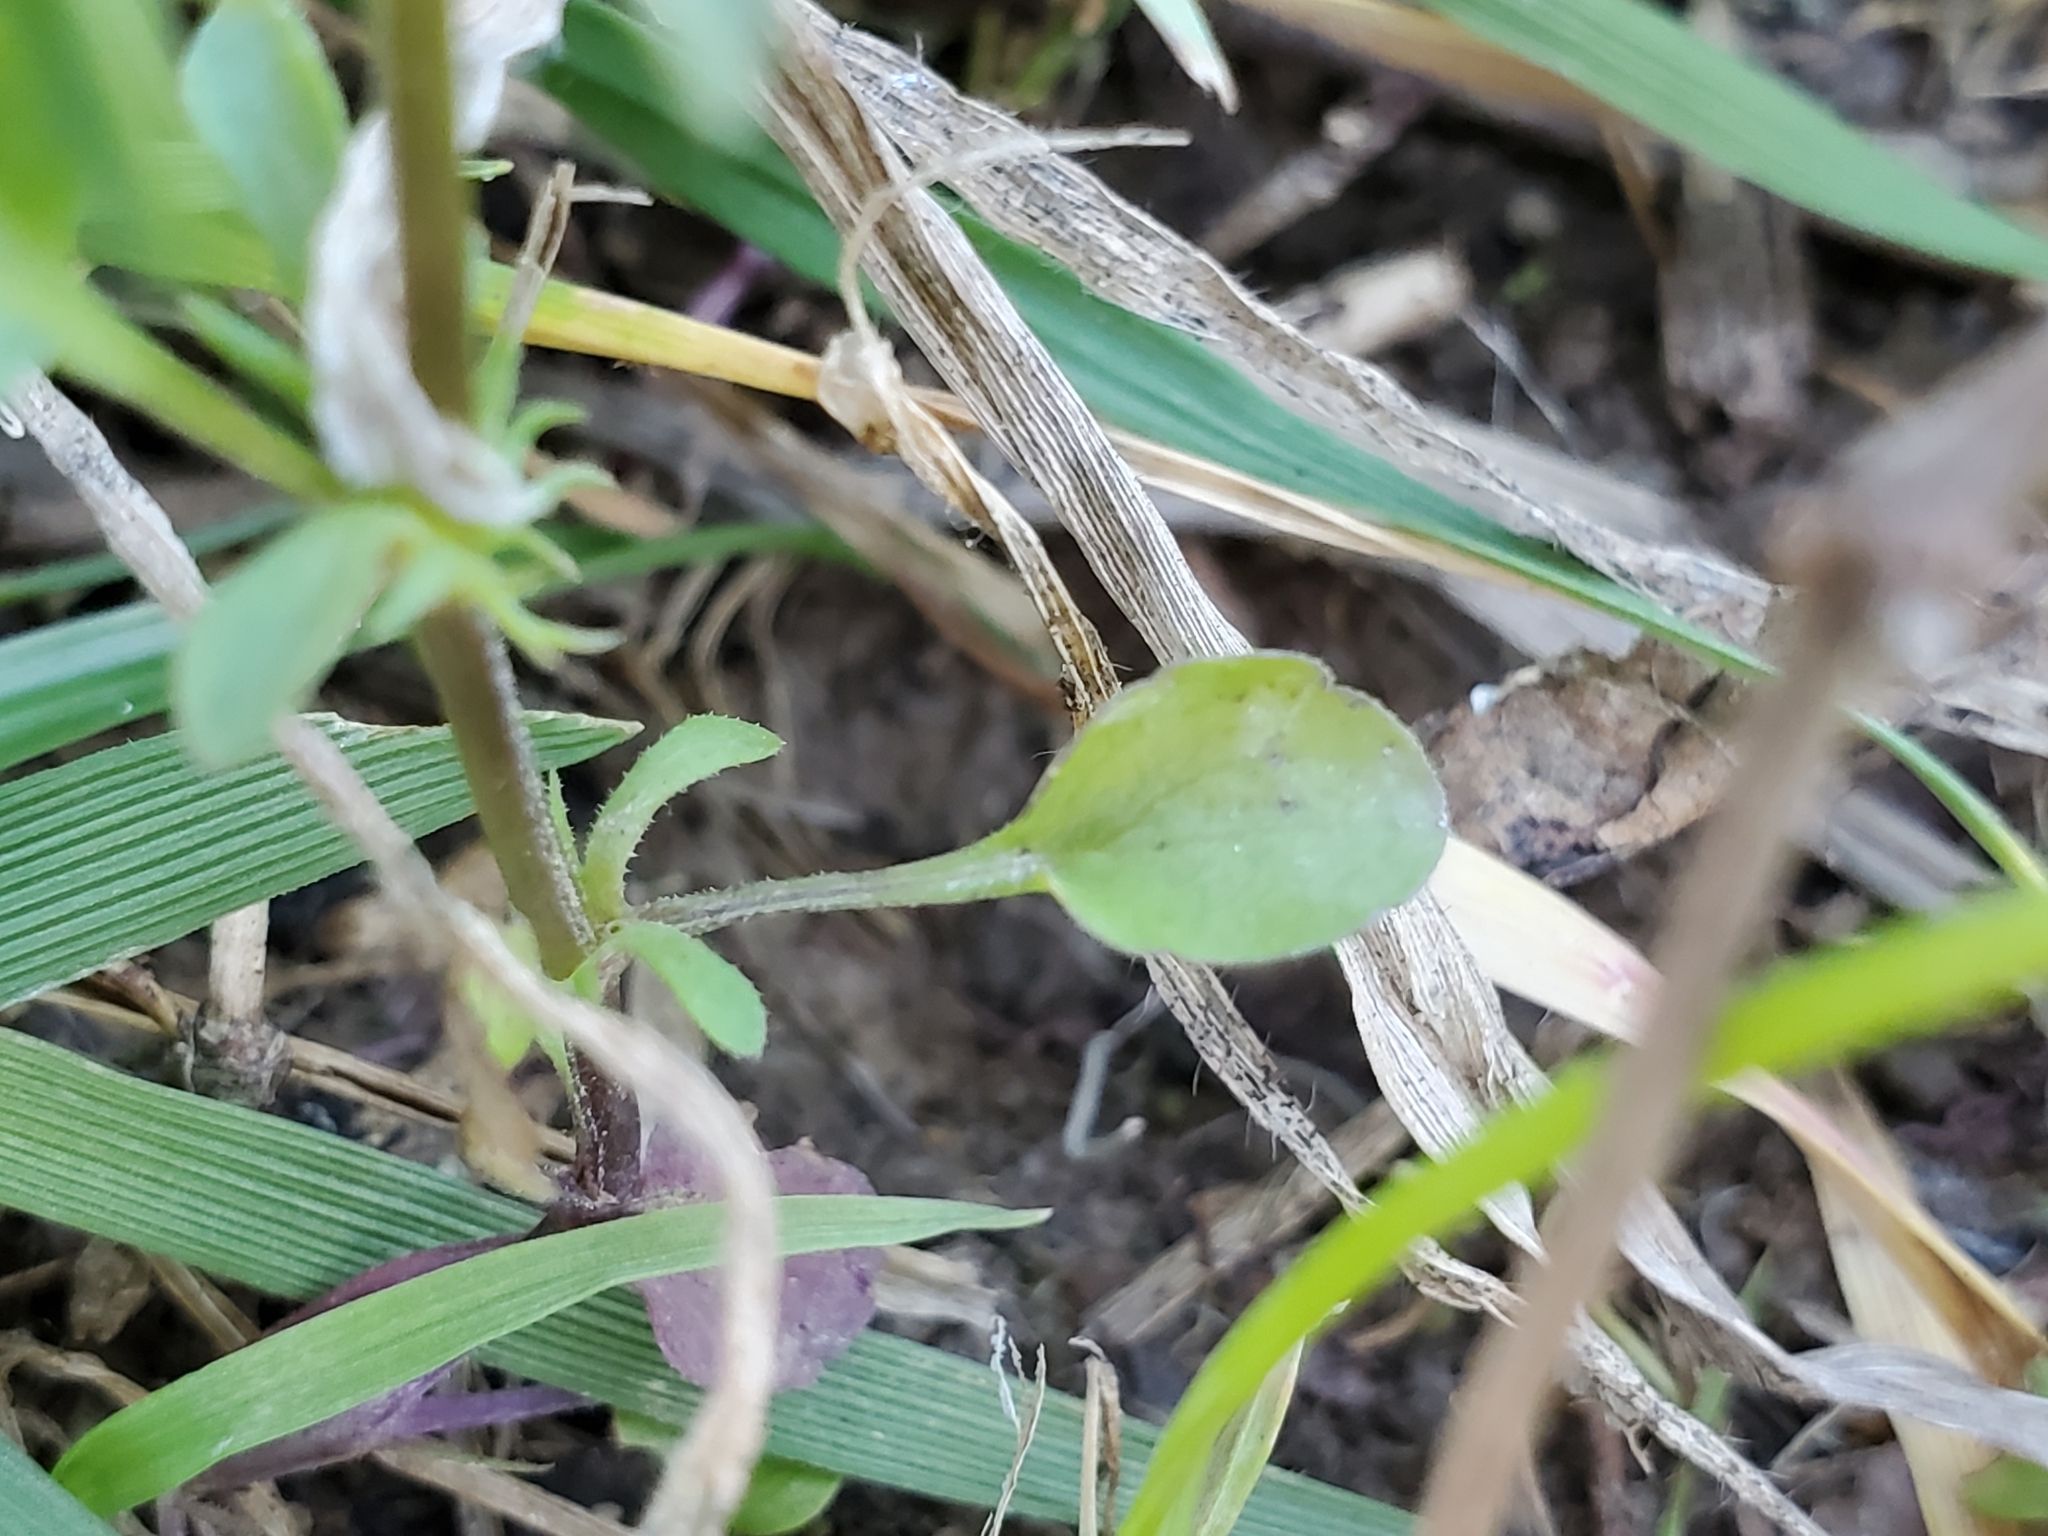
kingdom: Plantae
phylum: Tracheophyta
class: Magnoliopsida
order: Malpighiales
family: Violaceae
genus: Viola
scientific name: Viola rafinesquei
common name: American field pansy
